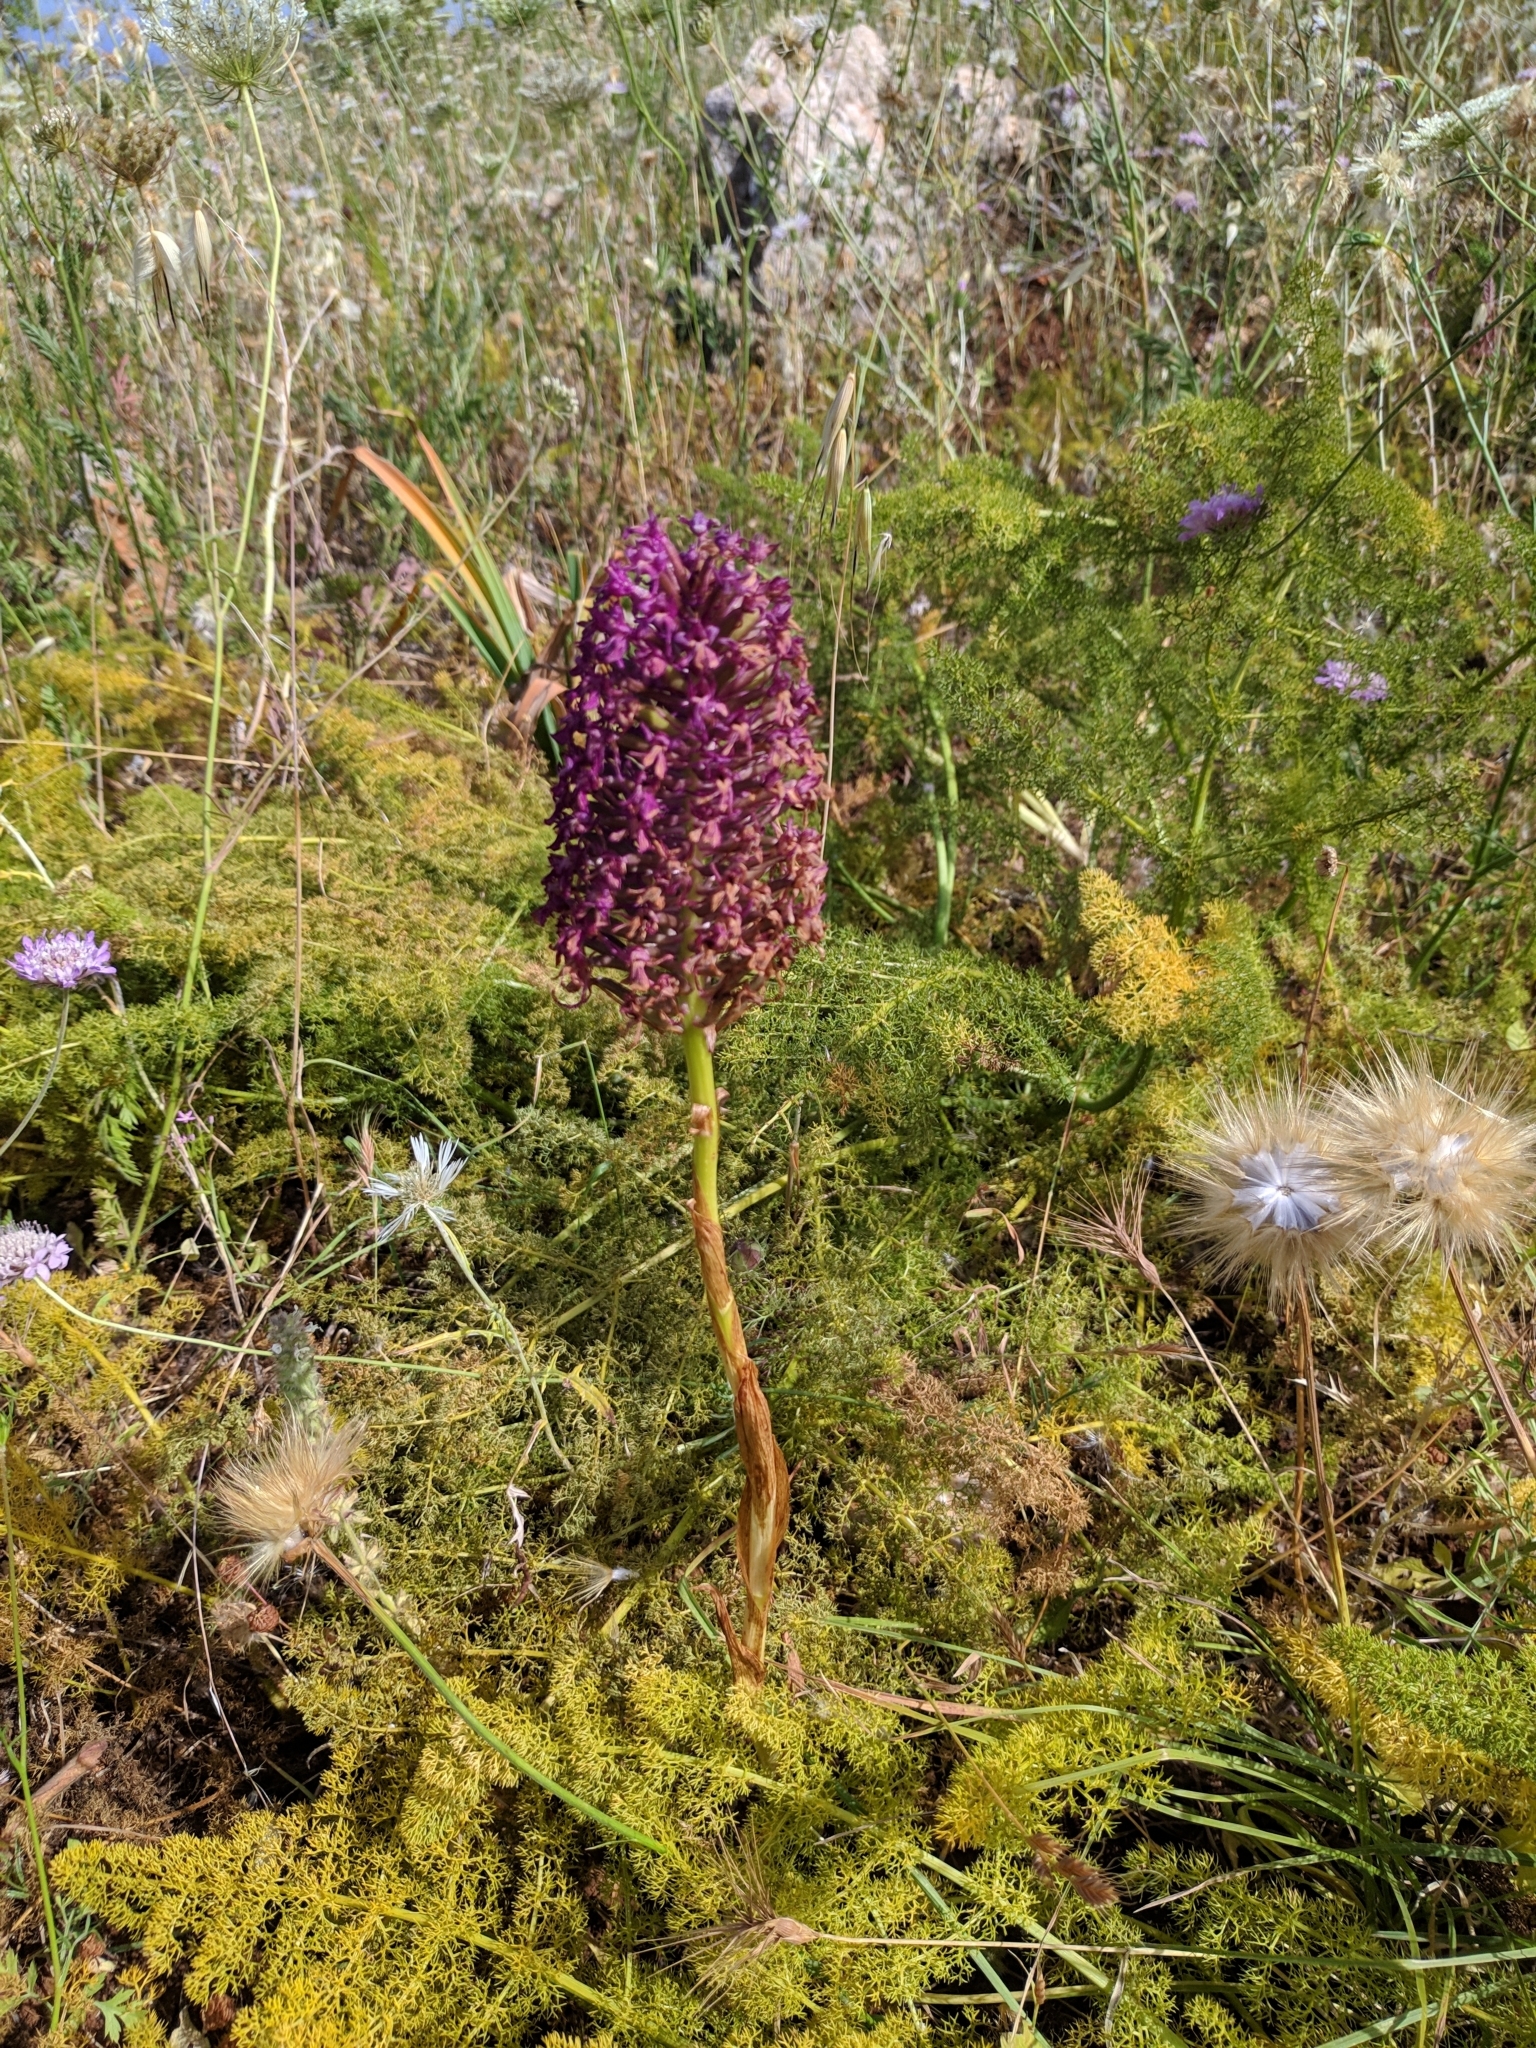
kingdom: Plantae
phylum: Tracheophyta
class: Liliopsida
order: Asparagales
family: Orchidaceae
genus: Anacamptis
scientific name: Anacamptis pyramidalis
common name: Pyramidal orchid
